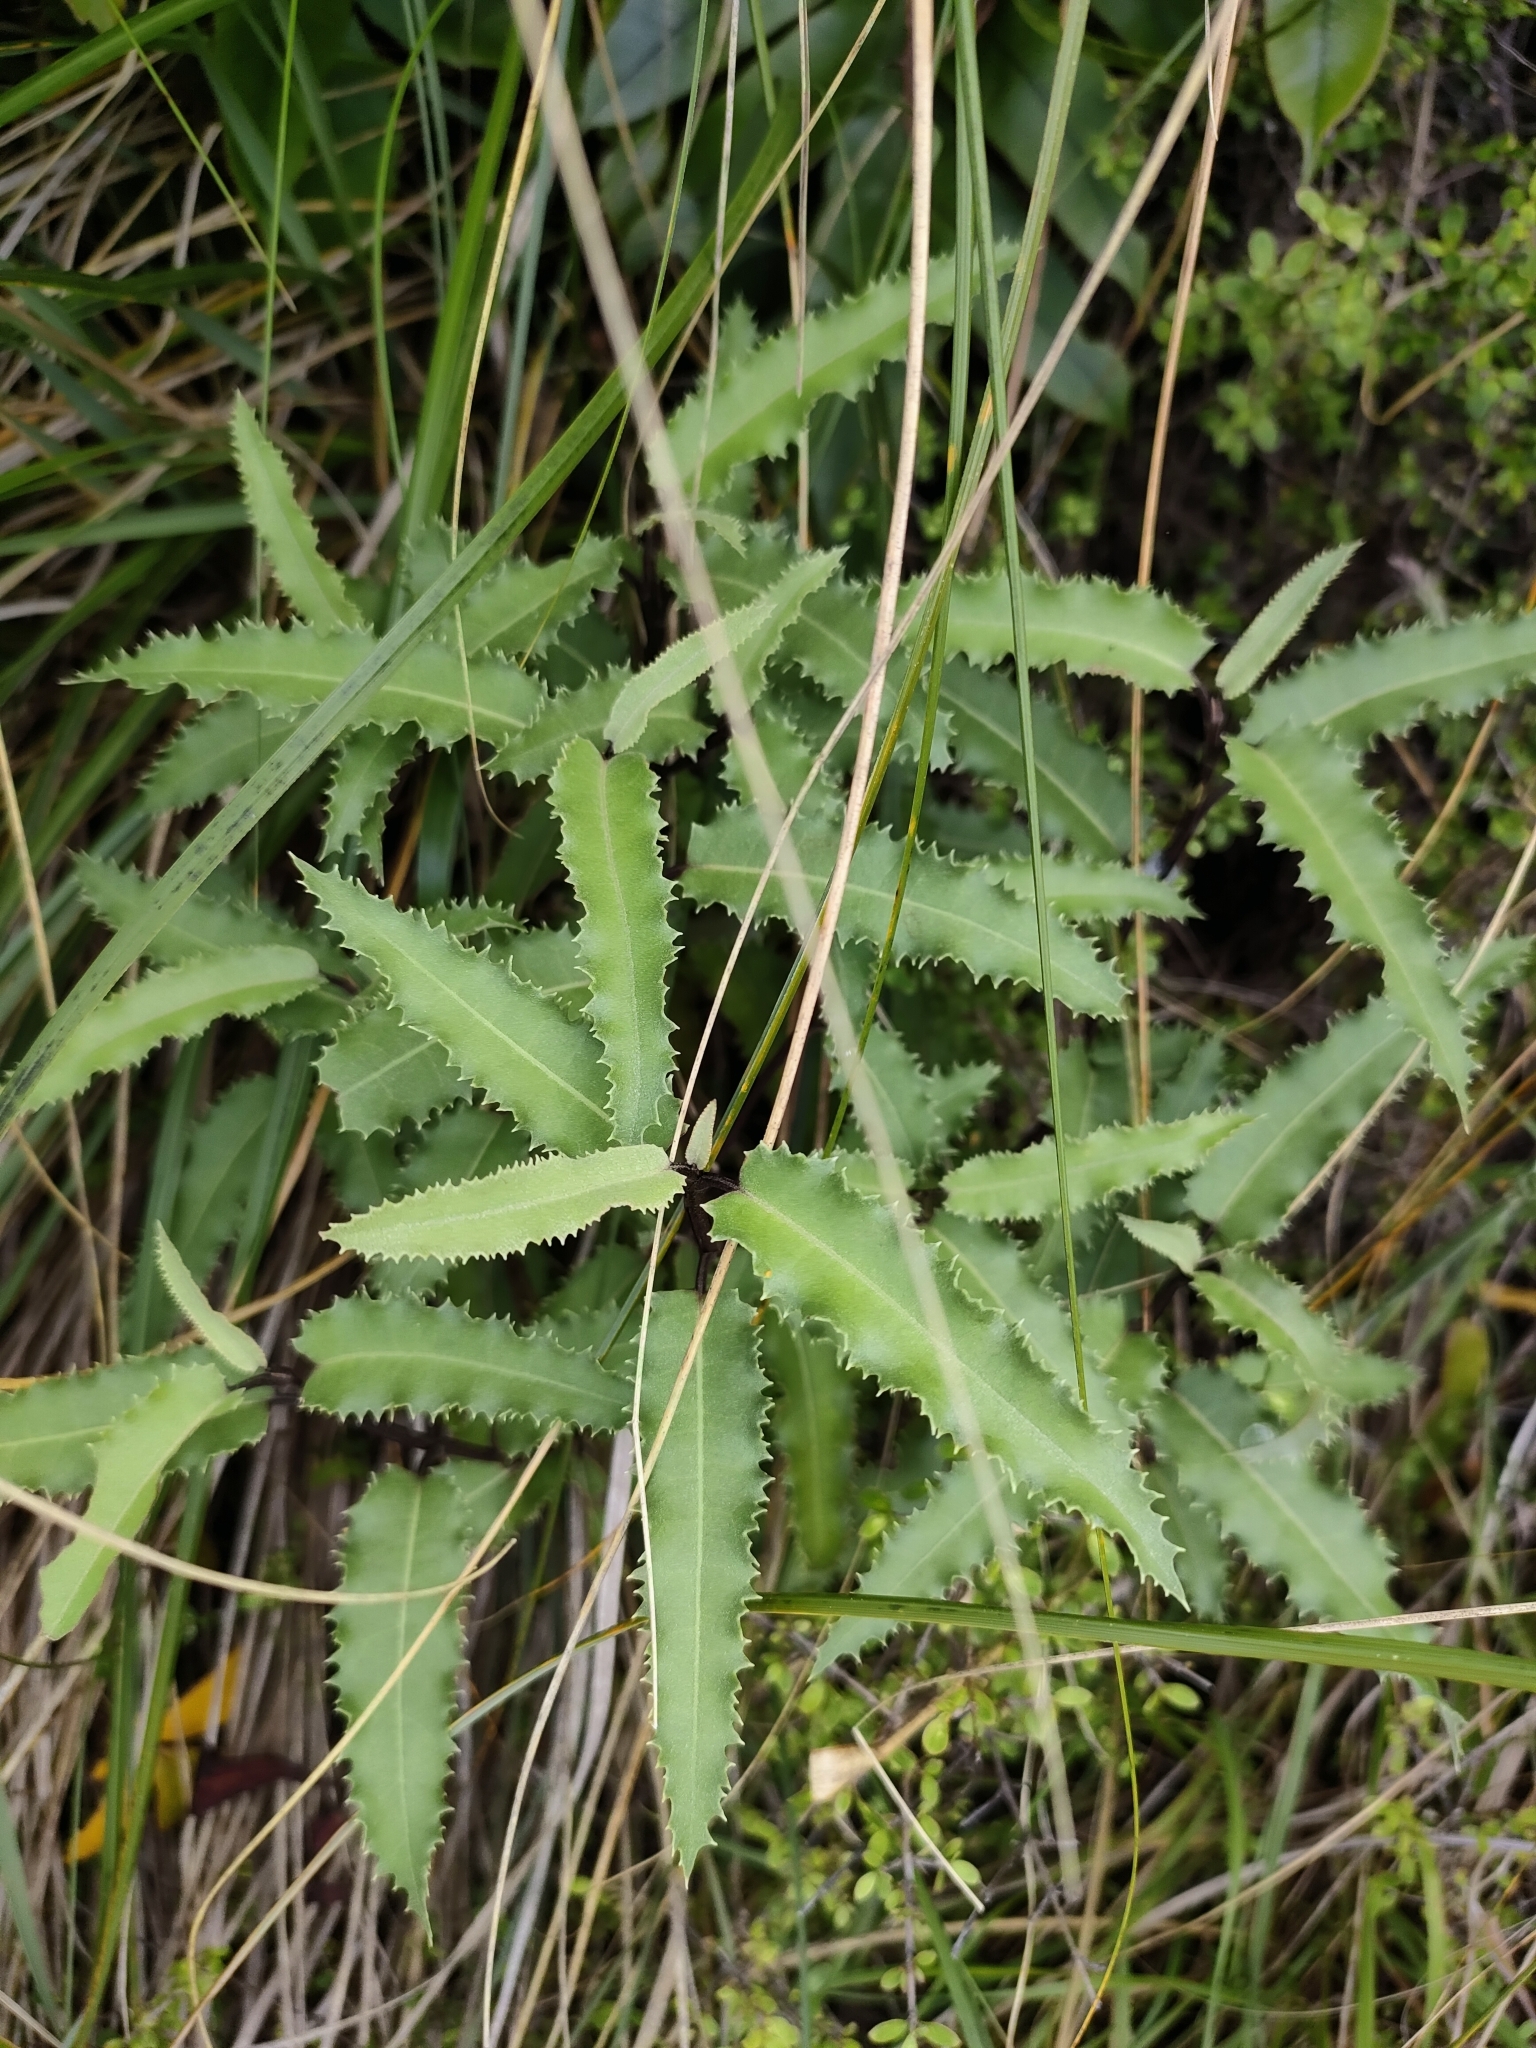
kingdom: Plantae
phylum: Tracheophyta
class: Magnoliopsida
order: Asterales
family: Asteraceae
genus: Olearia
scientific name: Olearia ilicifolia
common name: Maori-holly
